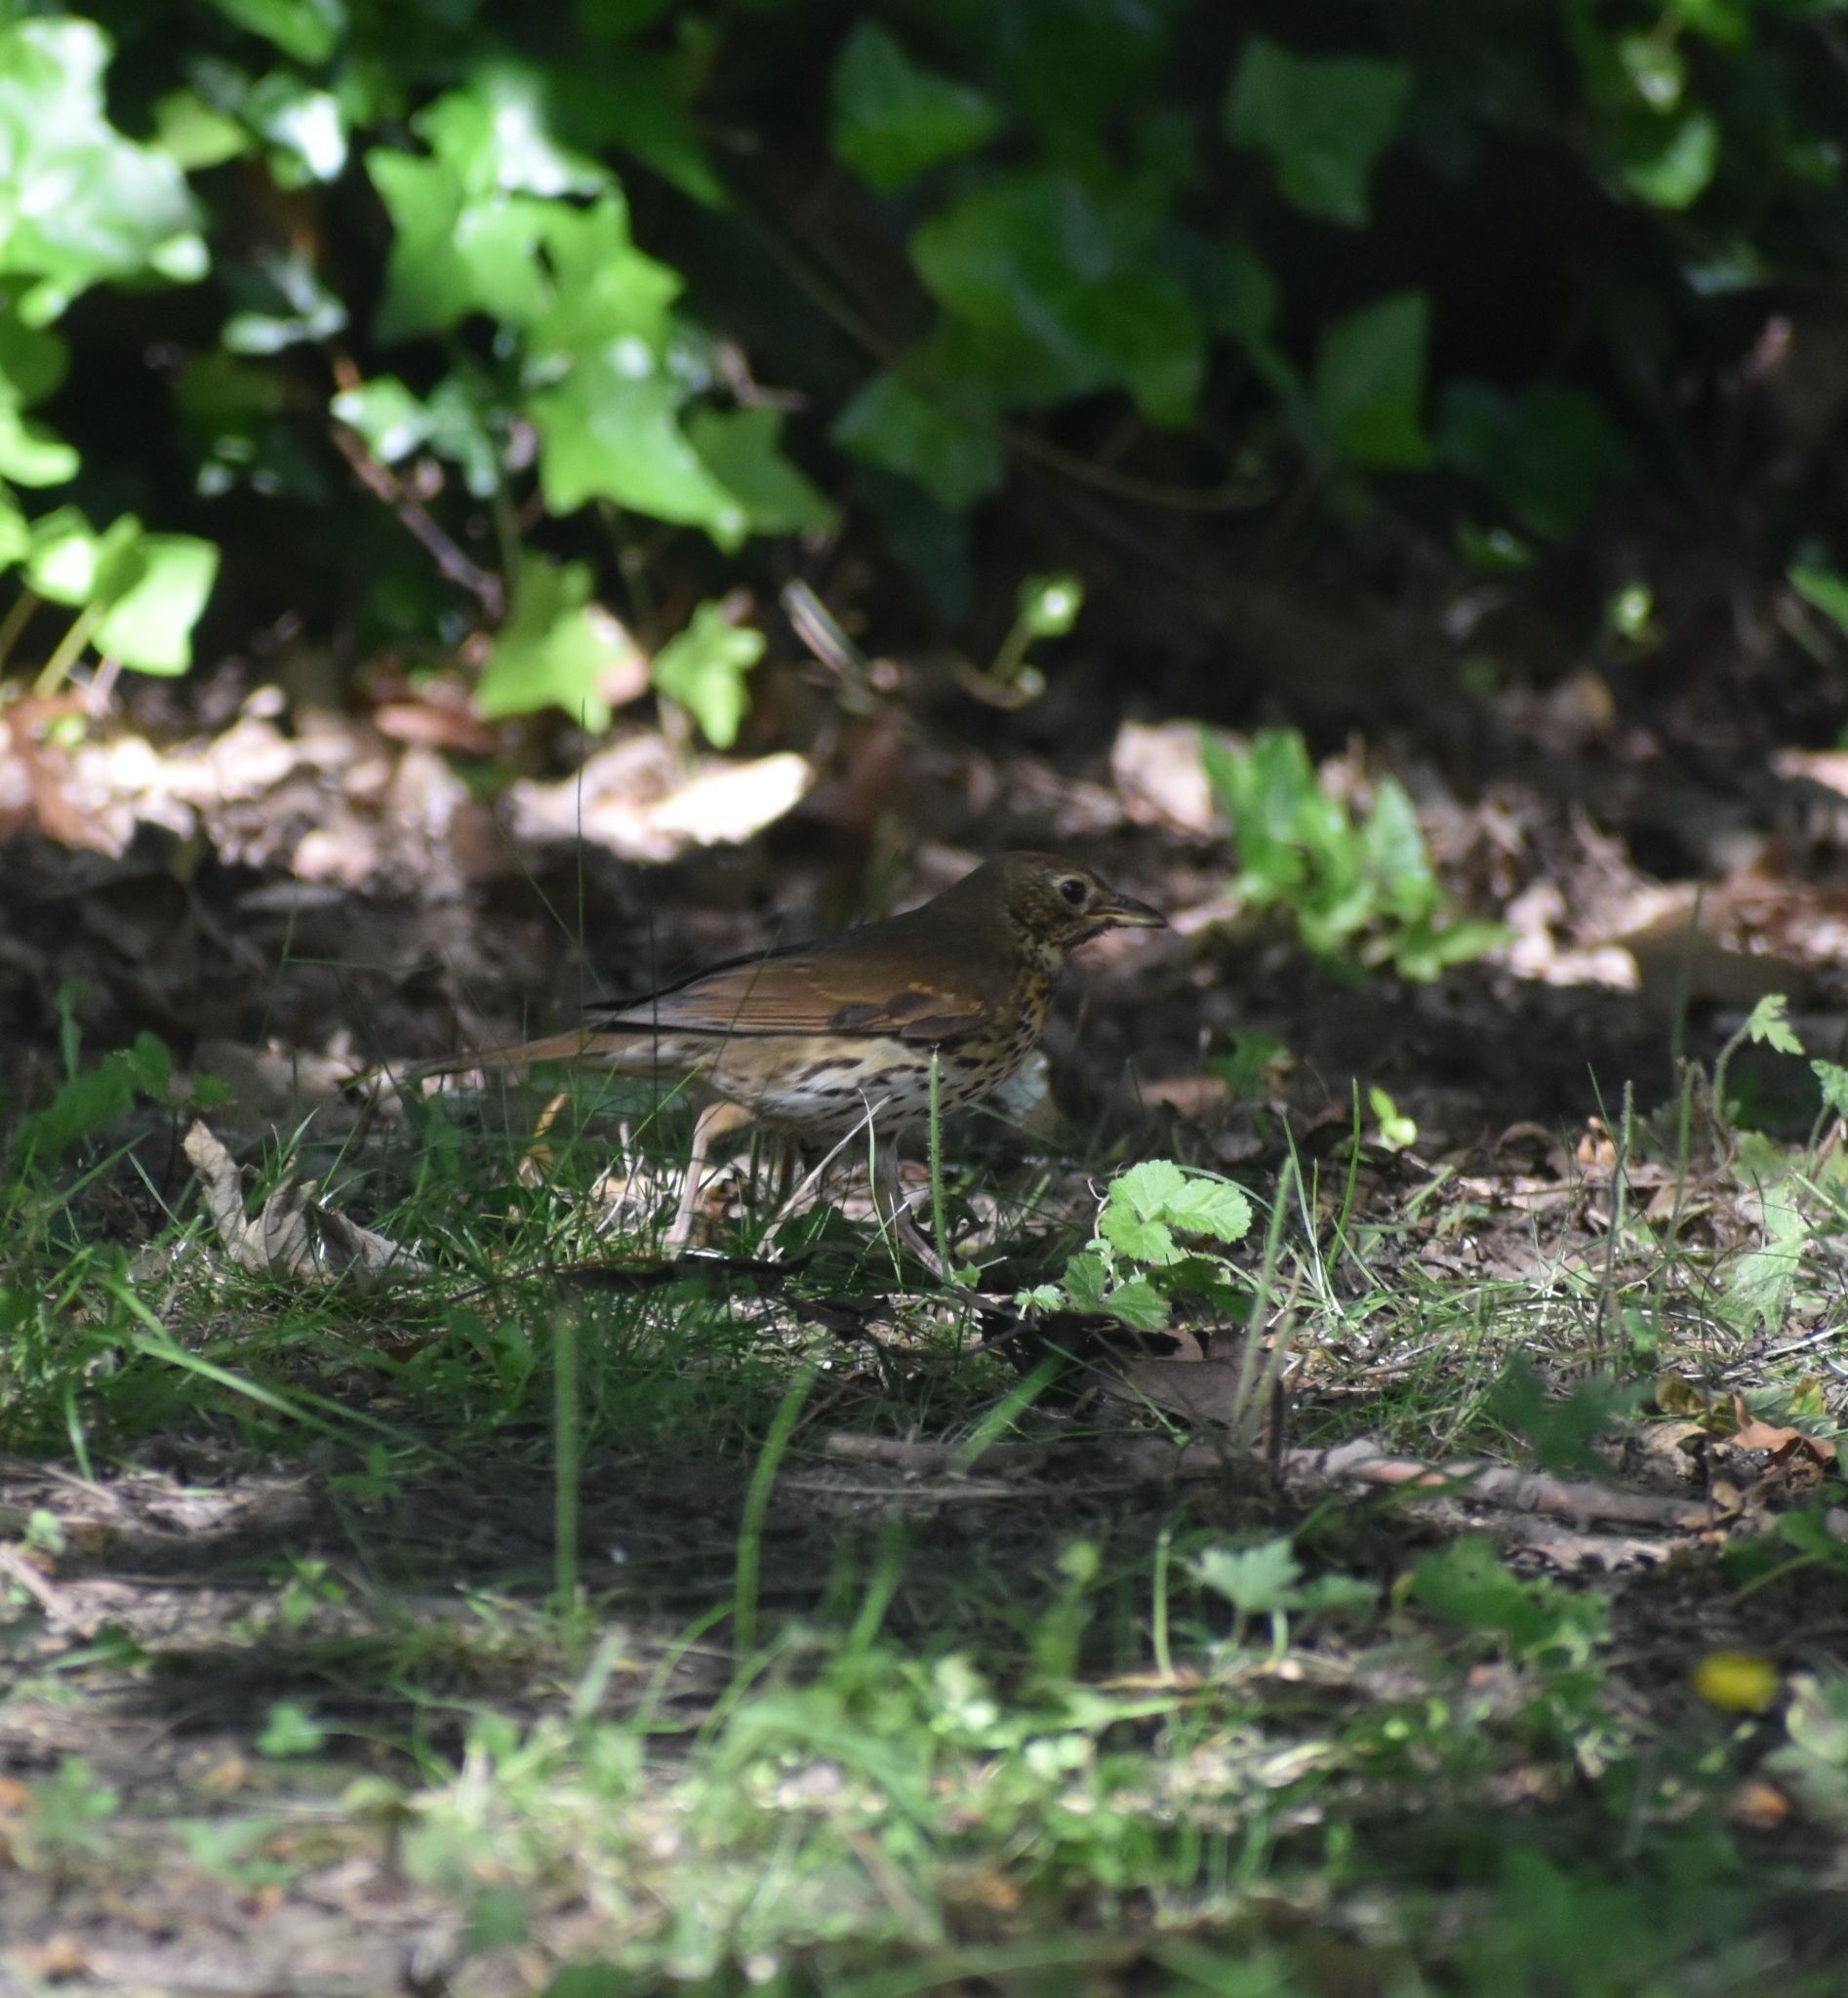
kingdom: Animalia
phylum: Chordata
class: Aves
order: Passeriformes
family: Turdidae
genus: Turdus
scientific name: Turdus philomelos
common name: Song thrush
